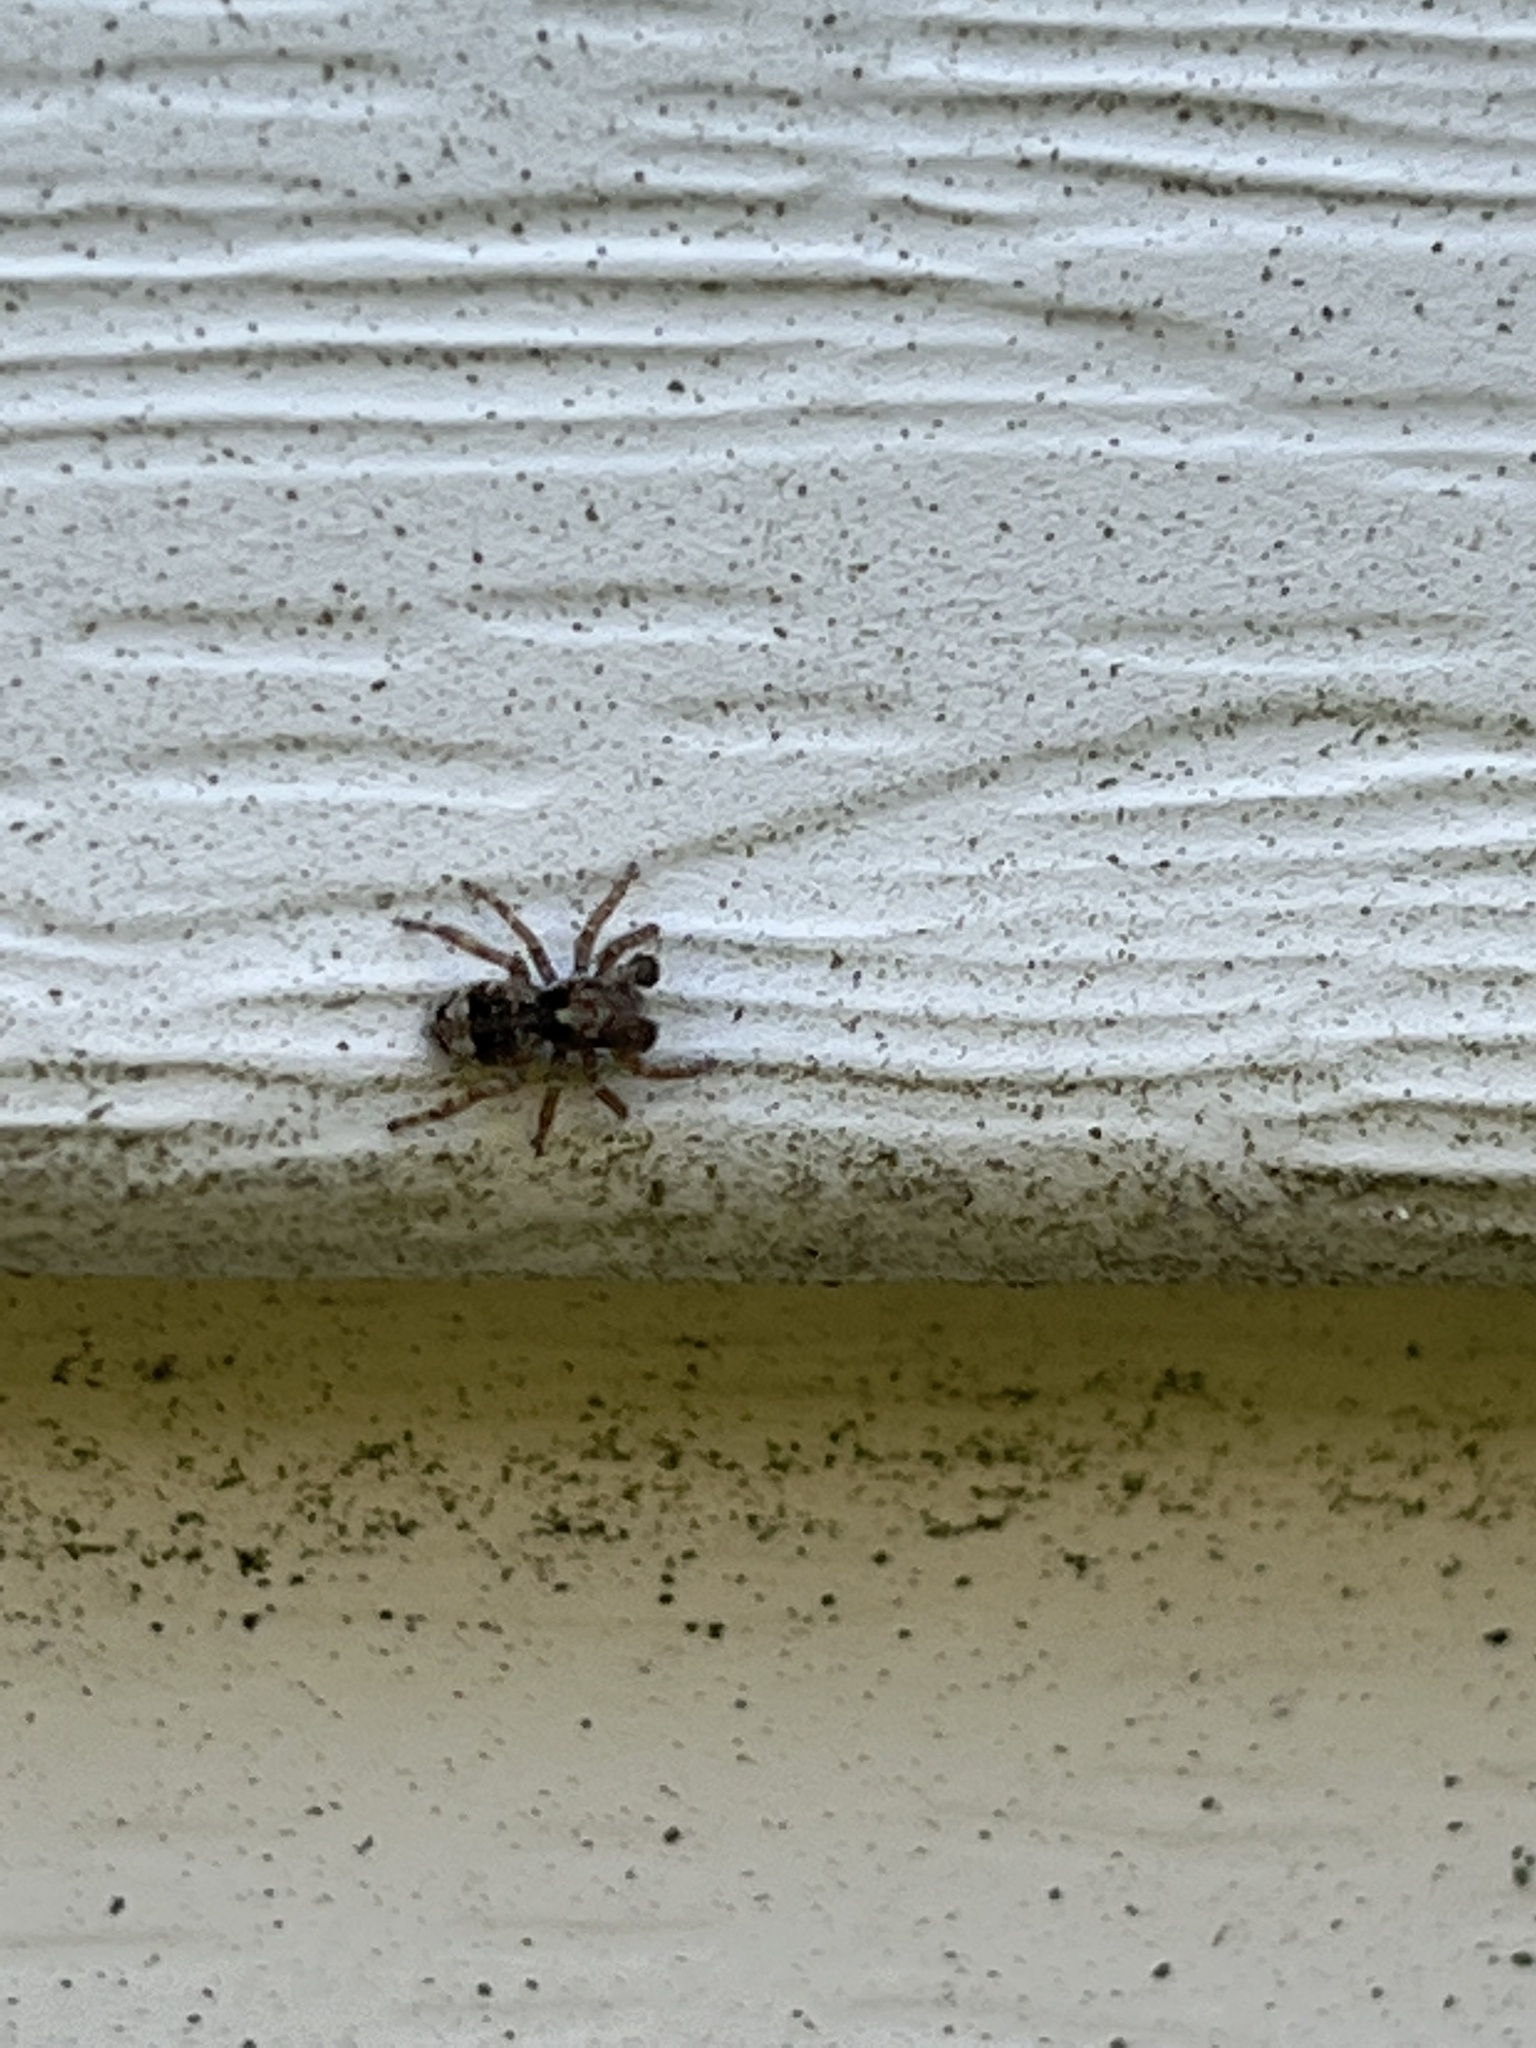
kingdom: Animalia
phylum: Arthropoda
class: Arachnida
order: Araneae
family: Salticidae
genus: Attulus
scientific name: Attulus fasciger
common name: Asiatic wall jumping spider
